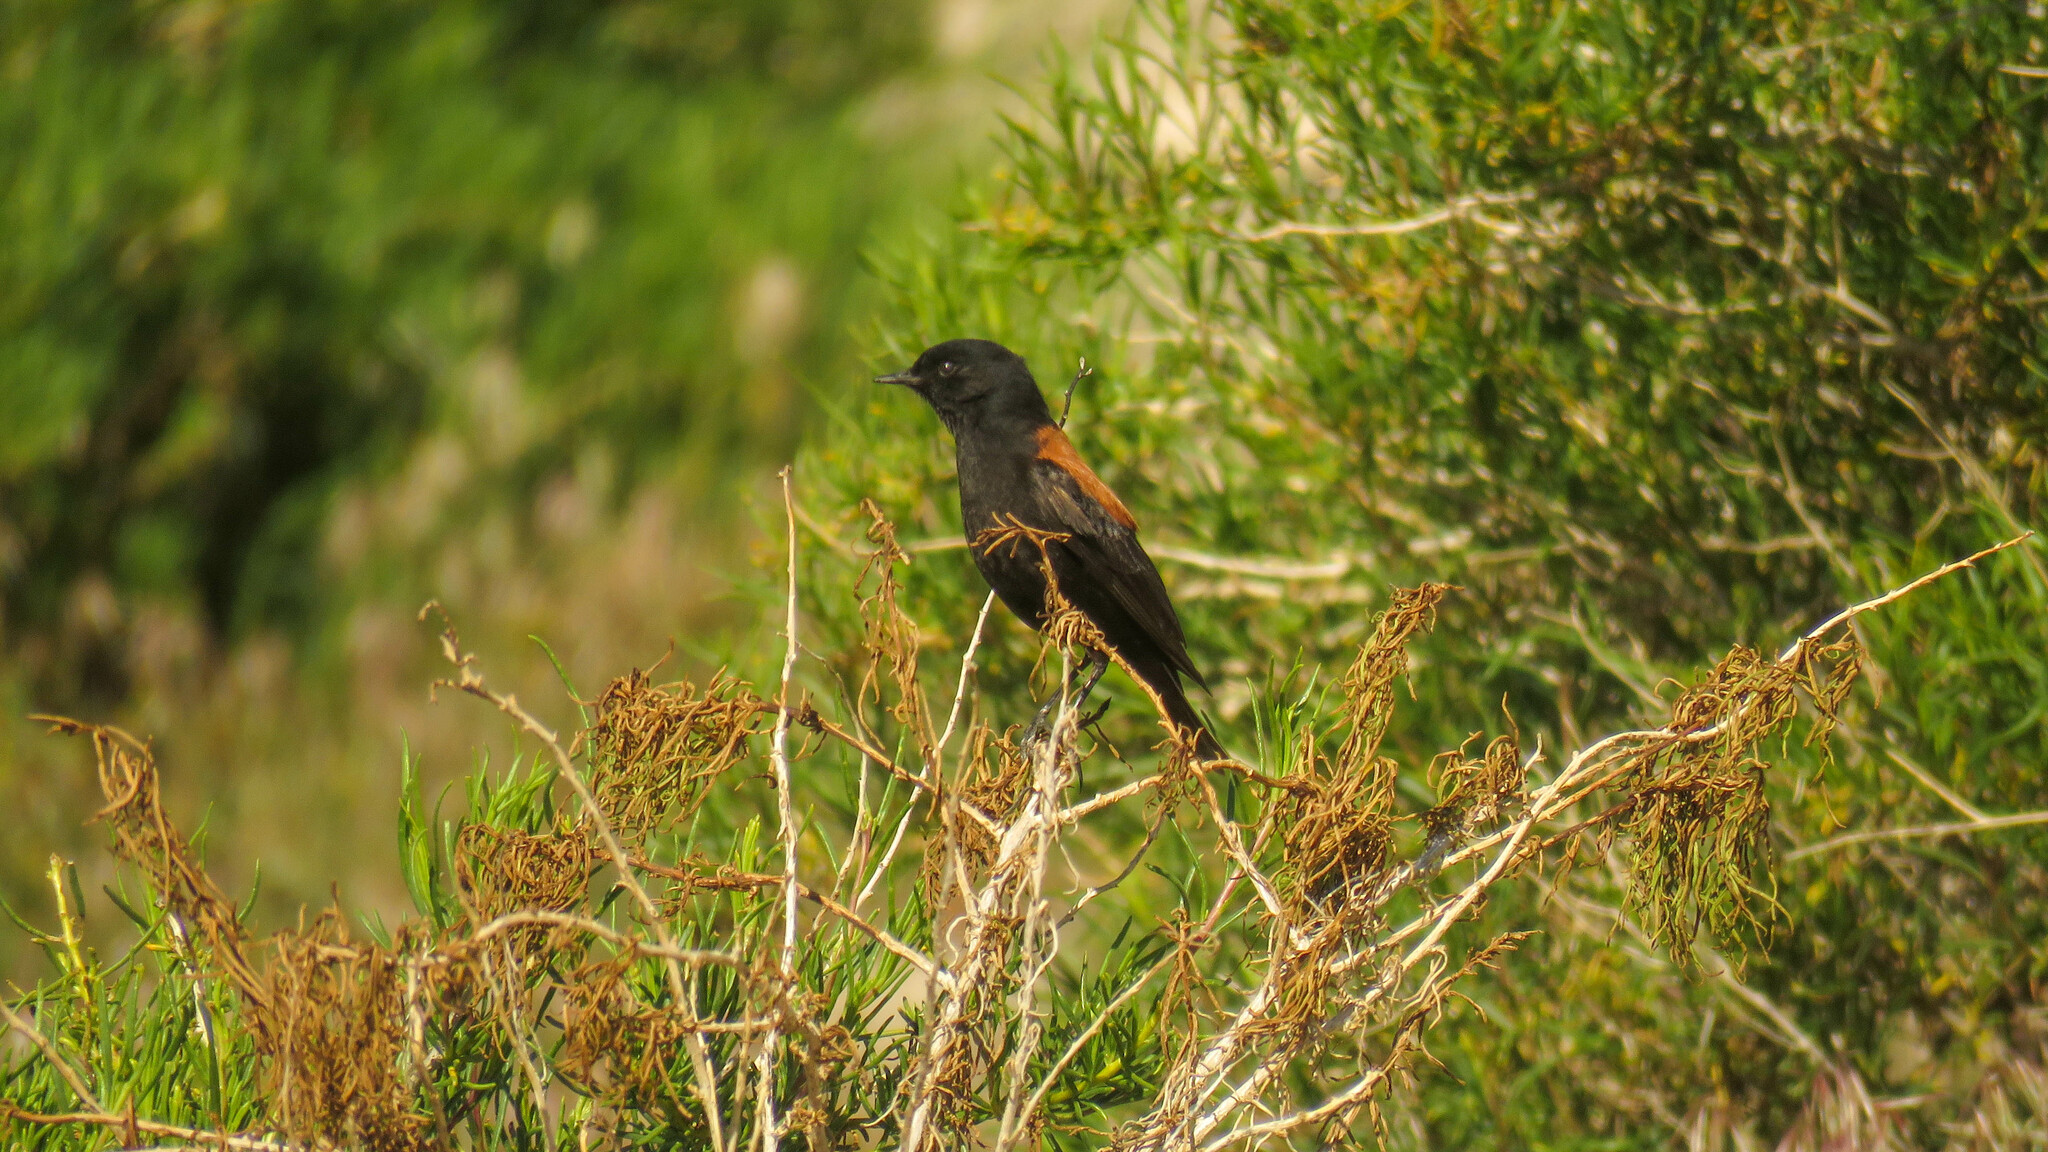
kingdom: Animalia
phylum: Chordata
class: Aves
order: Passeriformes
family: Tyrannidae
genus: Lessonia
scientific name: Lessonia rufa
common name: Austral negrito
